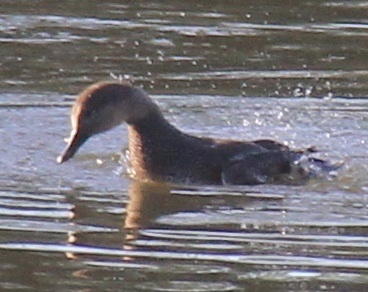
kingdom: Animalia
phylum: Chordata
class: Aves
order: Anseriformes
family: Anatidae
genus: Mareca
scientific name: Mareca strepera
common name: Gadwall
